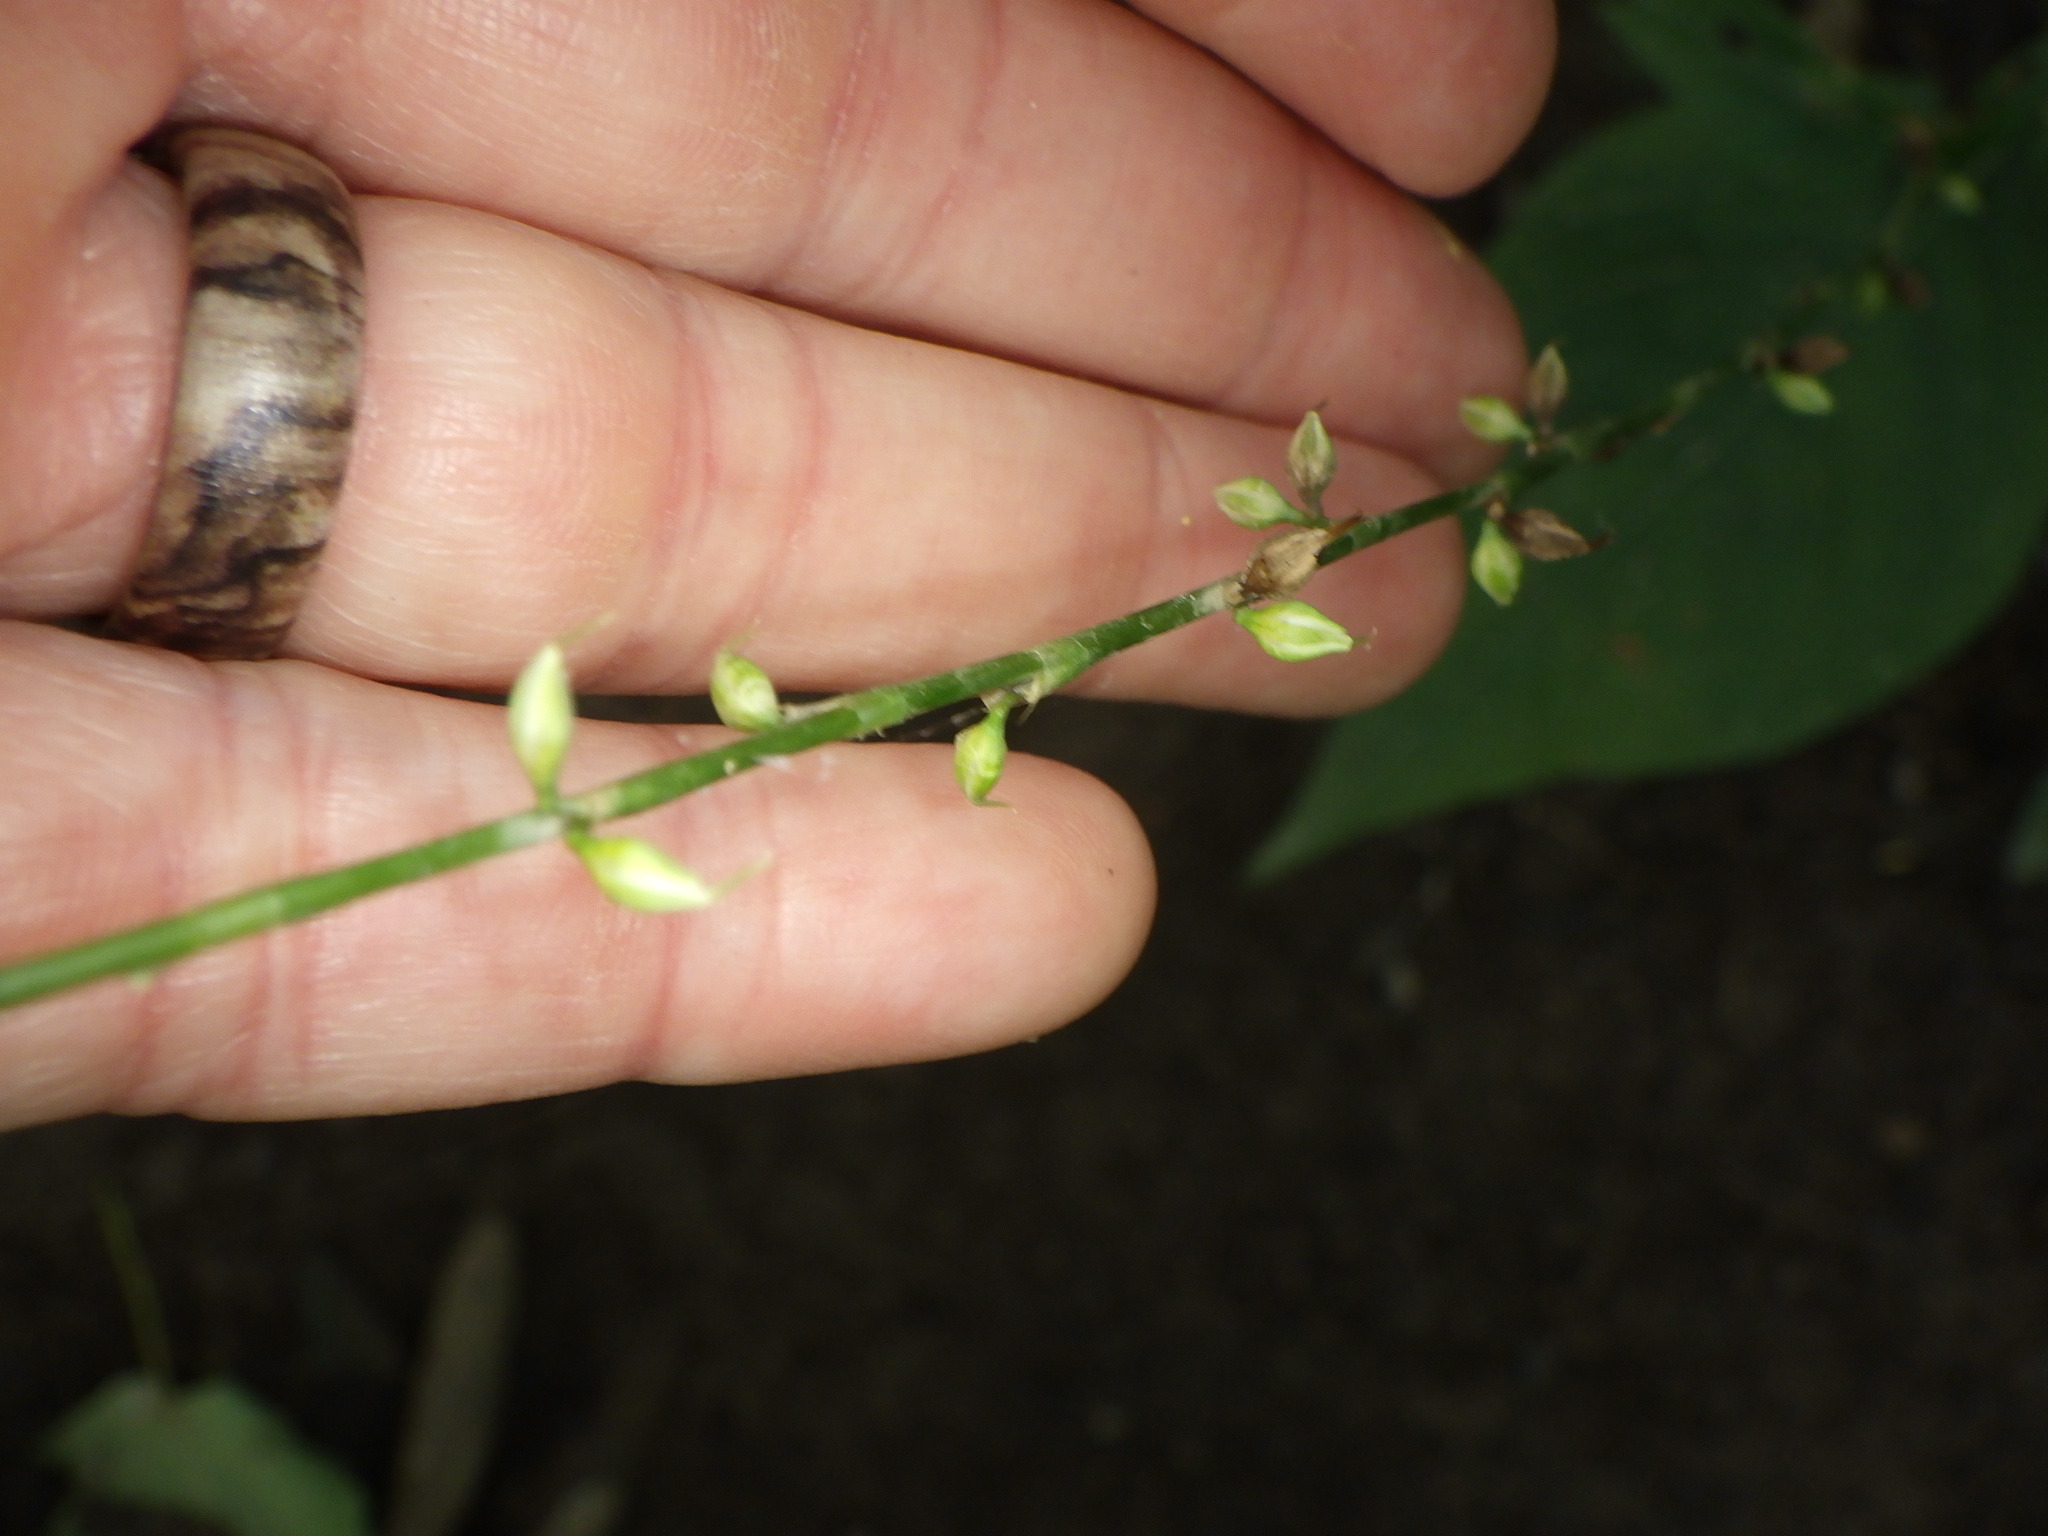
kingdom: Plantae
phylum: Tracheophyta
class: Magnoliopsida
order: Caryophyllales
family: Polygonaceae
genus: Persicaria
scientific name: Persicaria virginiana
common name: Jumpseed
